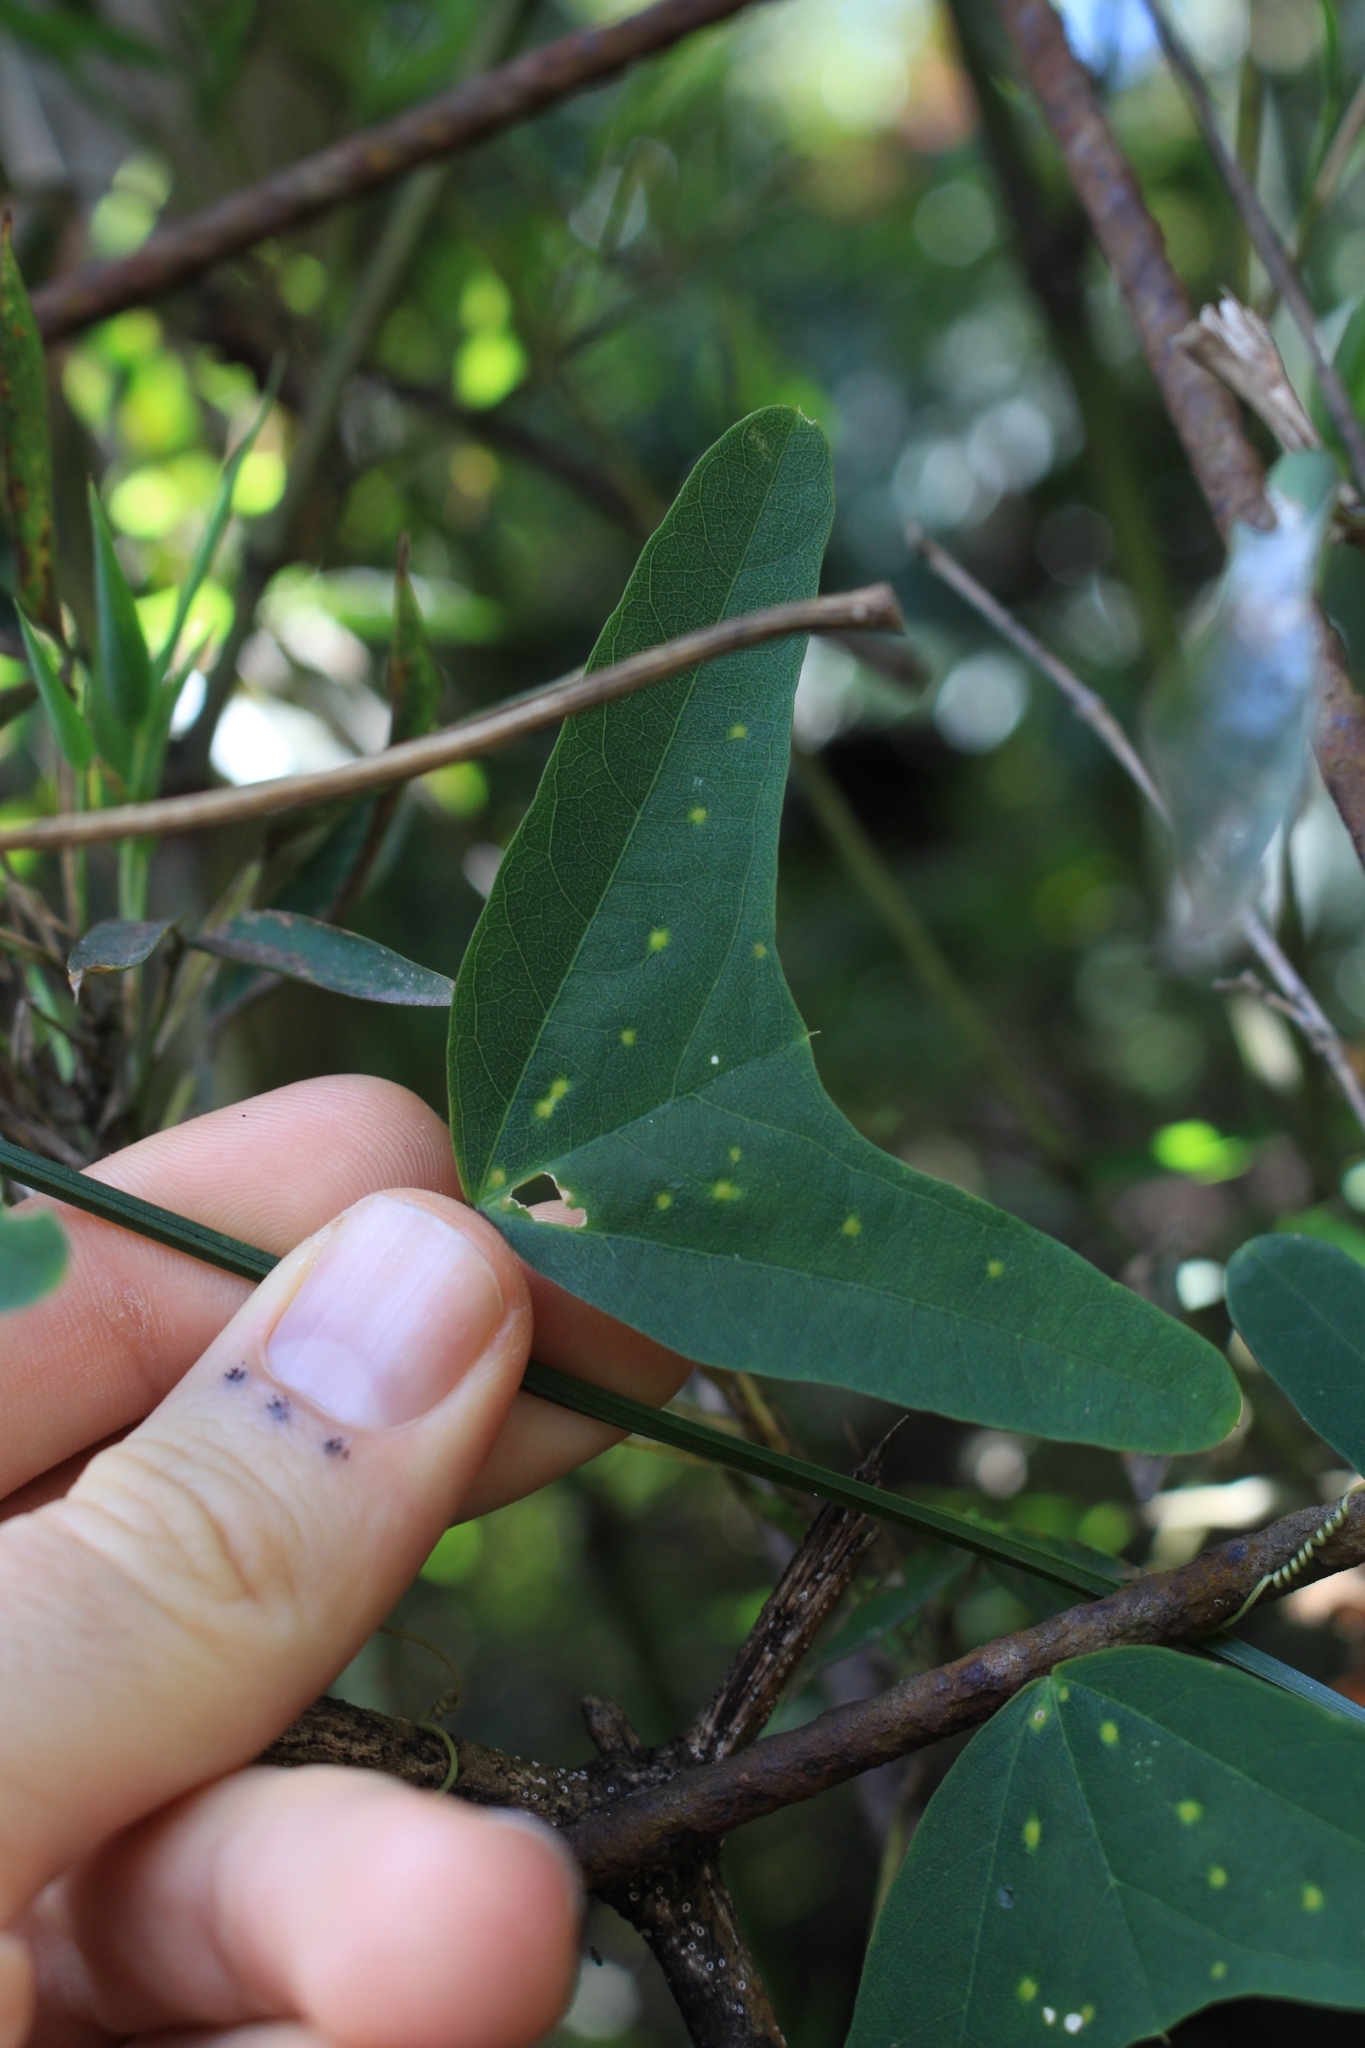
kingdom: Plantae
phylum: Tracheophyta
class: Magnoliopsida
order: Malpighiales
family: Passifloraceae
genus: Passiflora
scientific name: Passiflora biflora
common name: Twoflower passionflower
